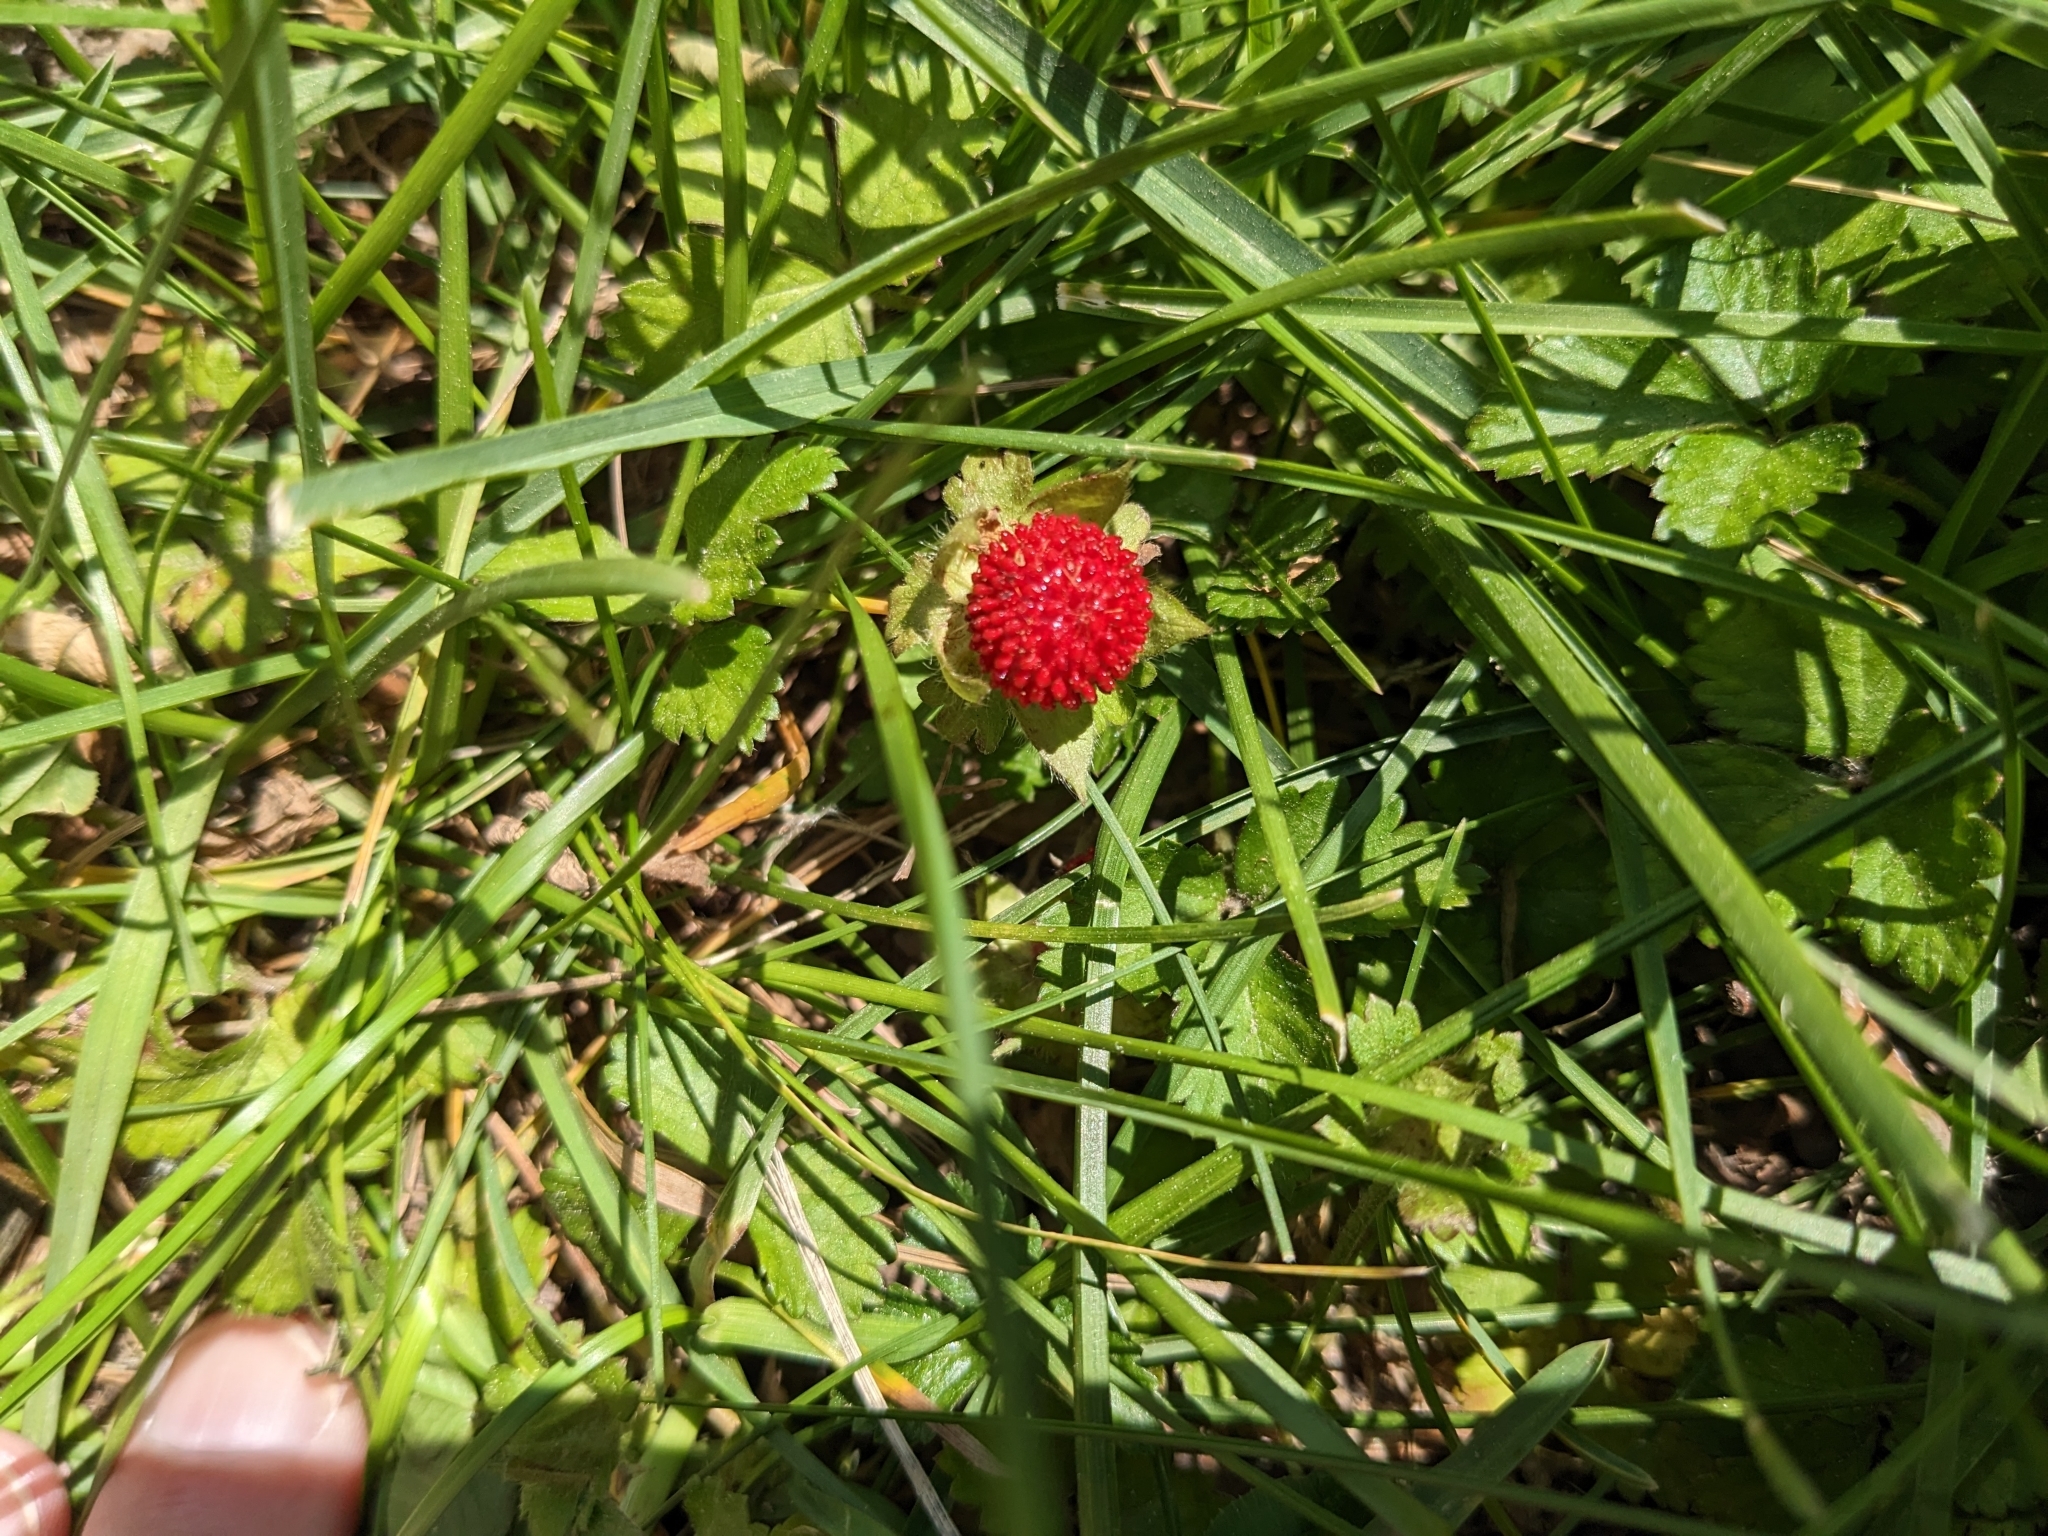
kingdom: Plantae
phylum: Tracheophyta
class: Magnoliopsida
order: Rosales
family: Rosaceae
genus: Potentilla
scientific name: Potentilla indica
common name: Yellow-flowered strawberry
